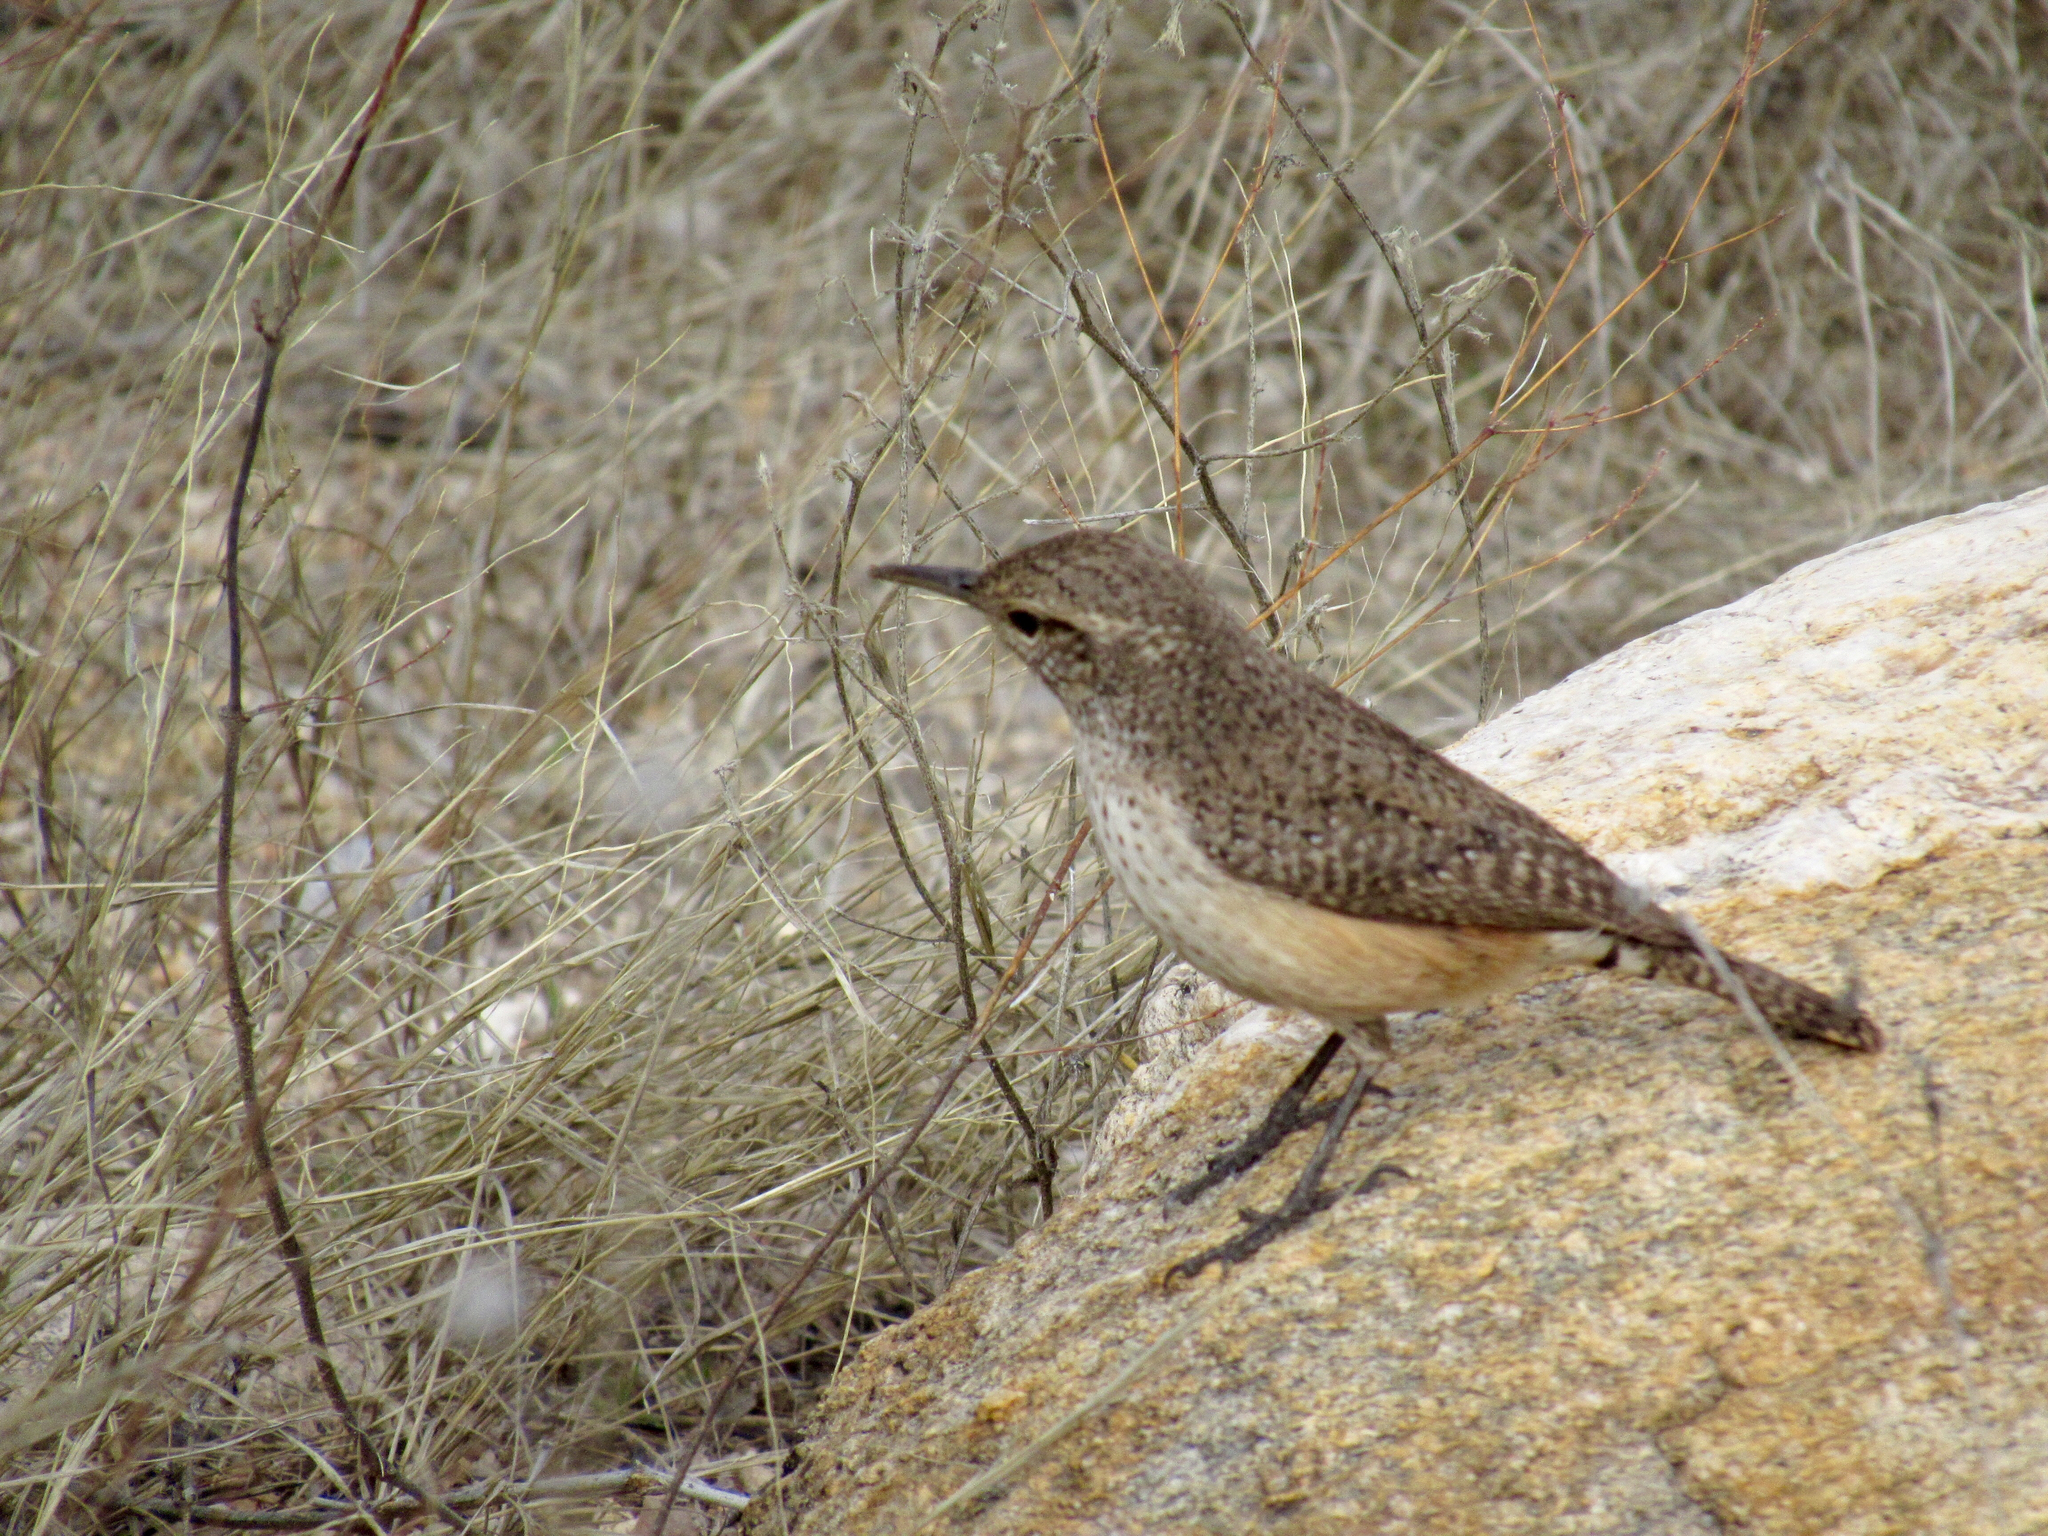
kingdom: Animalia
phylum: Chordata
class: Aves
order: Passeriformes
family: Troglodytidae
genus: Salpinctes
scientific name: Salpinctes obsoletus
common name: Rock wren
